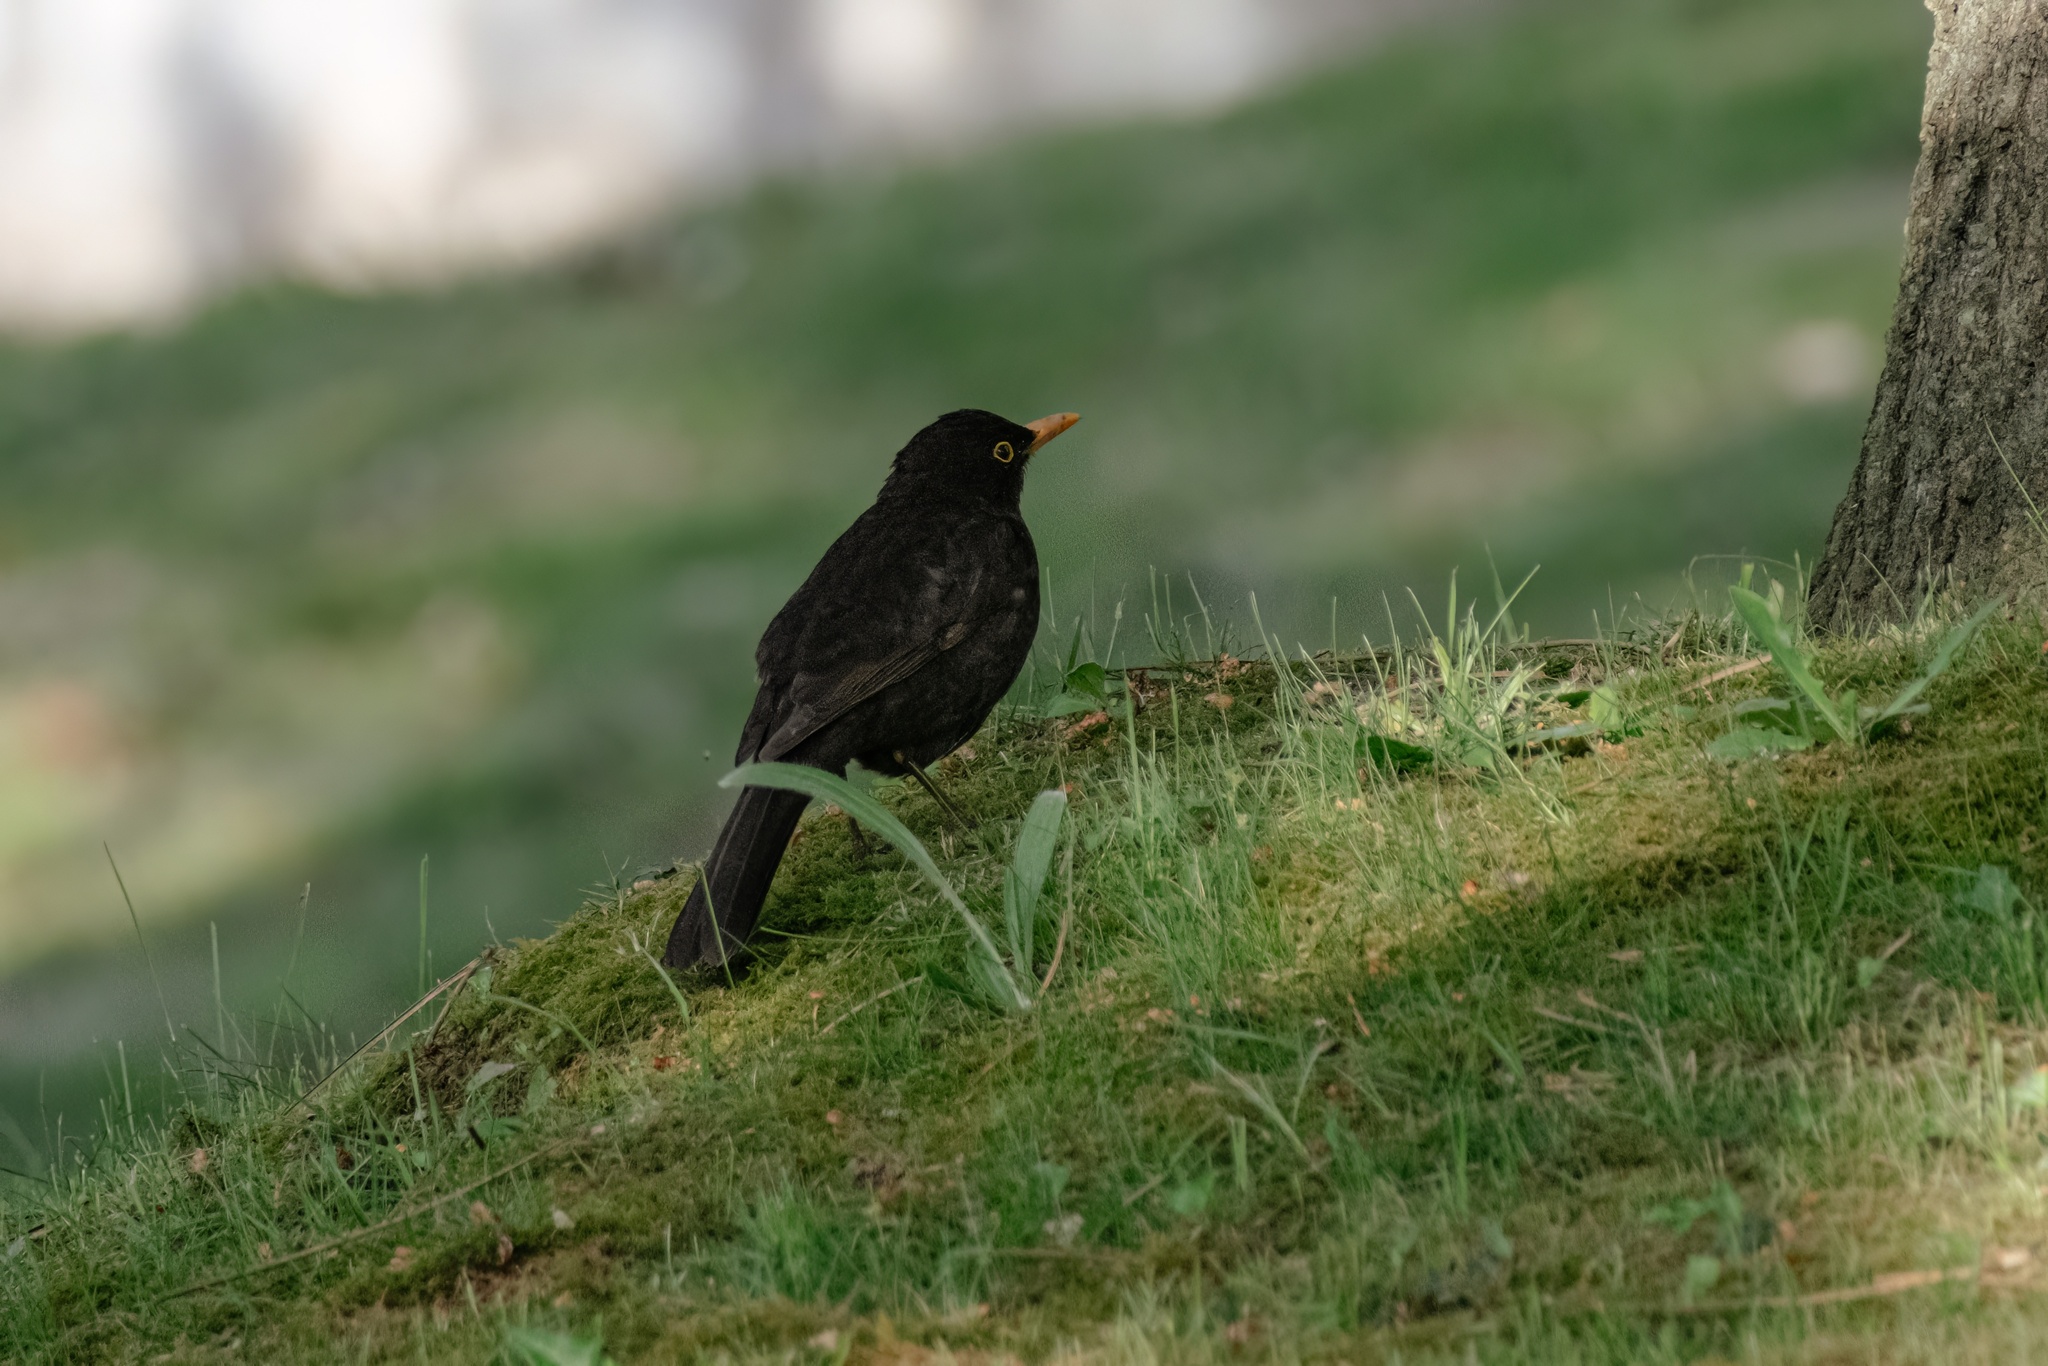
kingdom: Animalia
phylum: Chordata
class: Aves
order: Passeriformes
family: Turdidae
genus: Turdus
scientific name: Turdus merula
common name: Common blackbird
